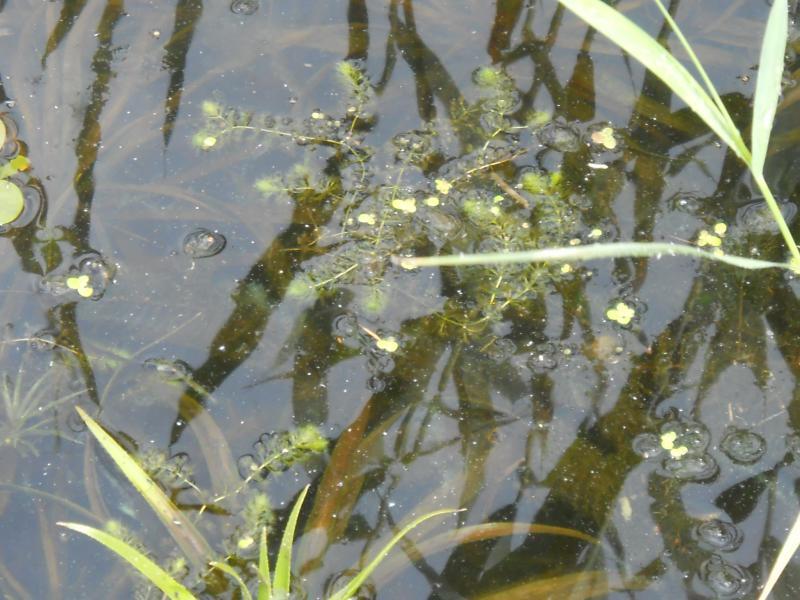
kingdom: Plantae
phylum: Tracheophyta
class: Magnoliopsida
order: Caryophyllales
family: Droseraceae
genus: Aldrovanda
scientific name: Aldrovanda vesiculosa
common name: Waterwheel plant
